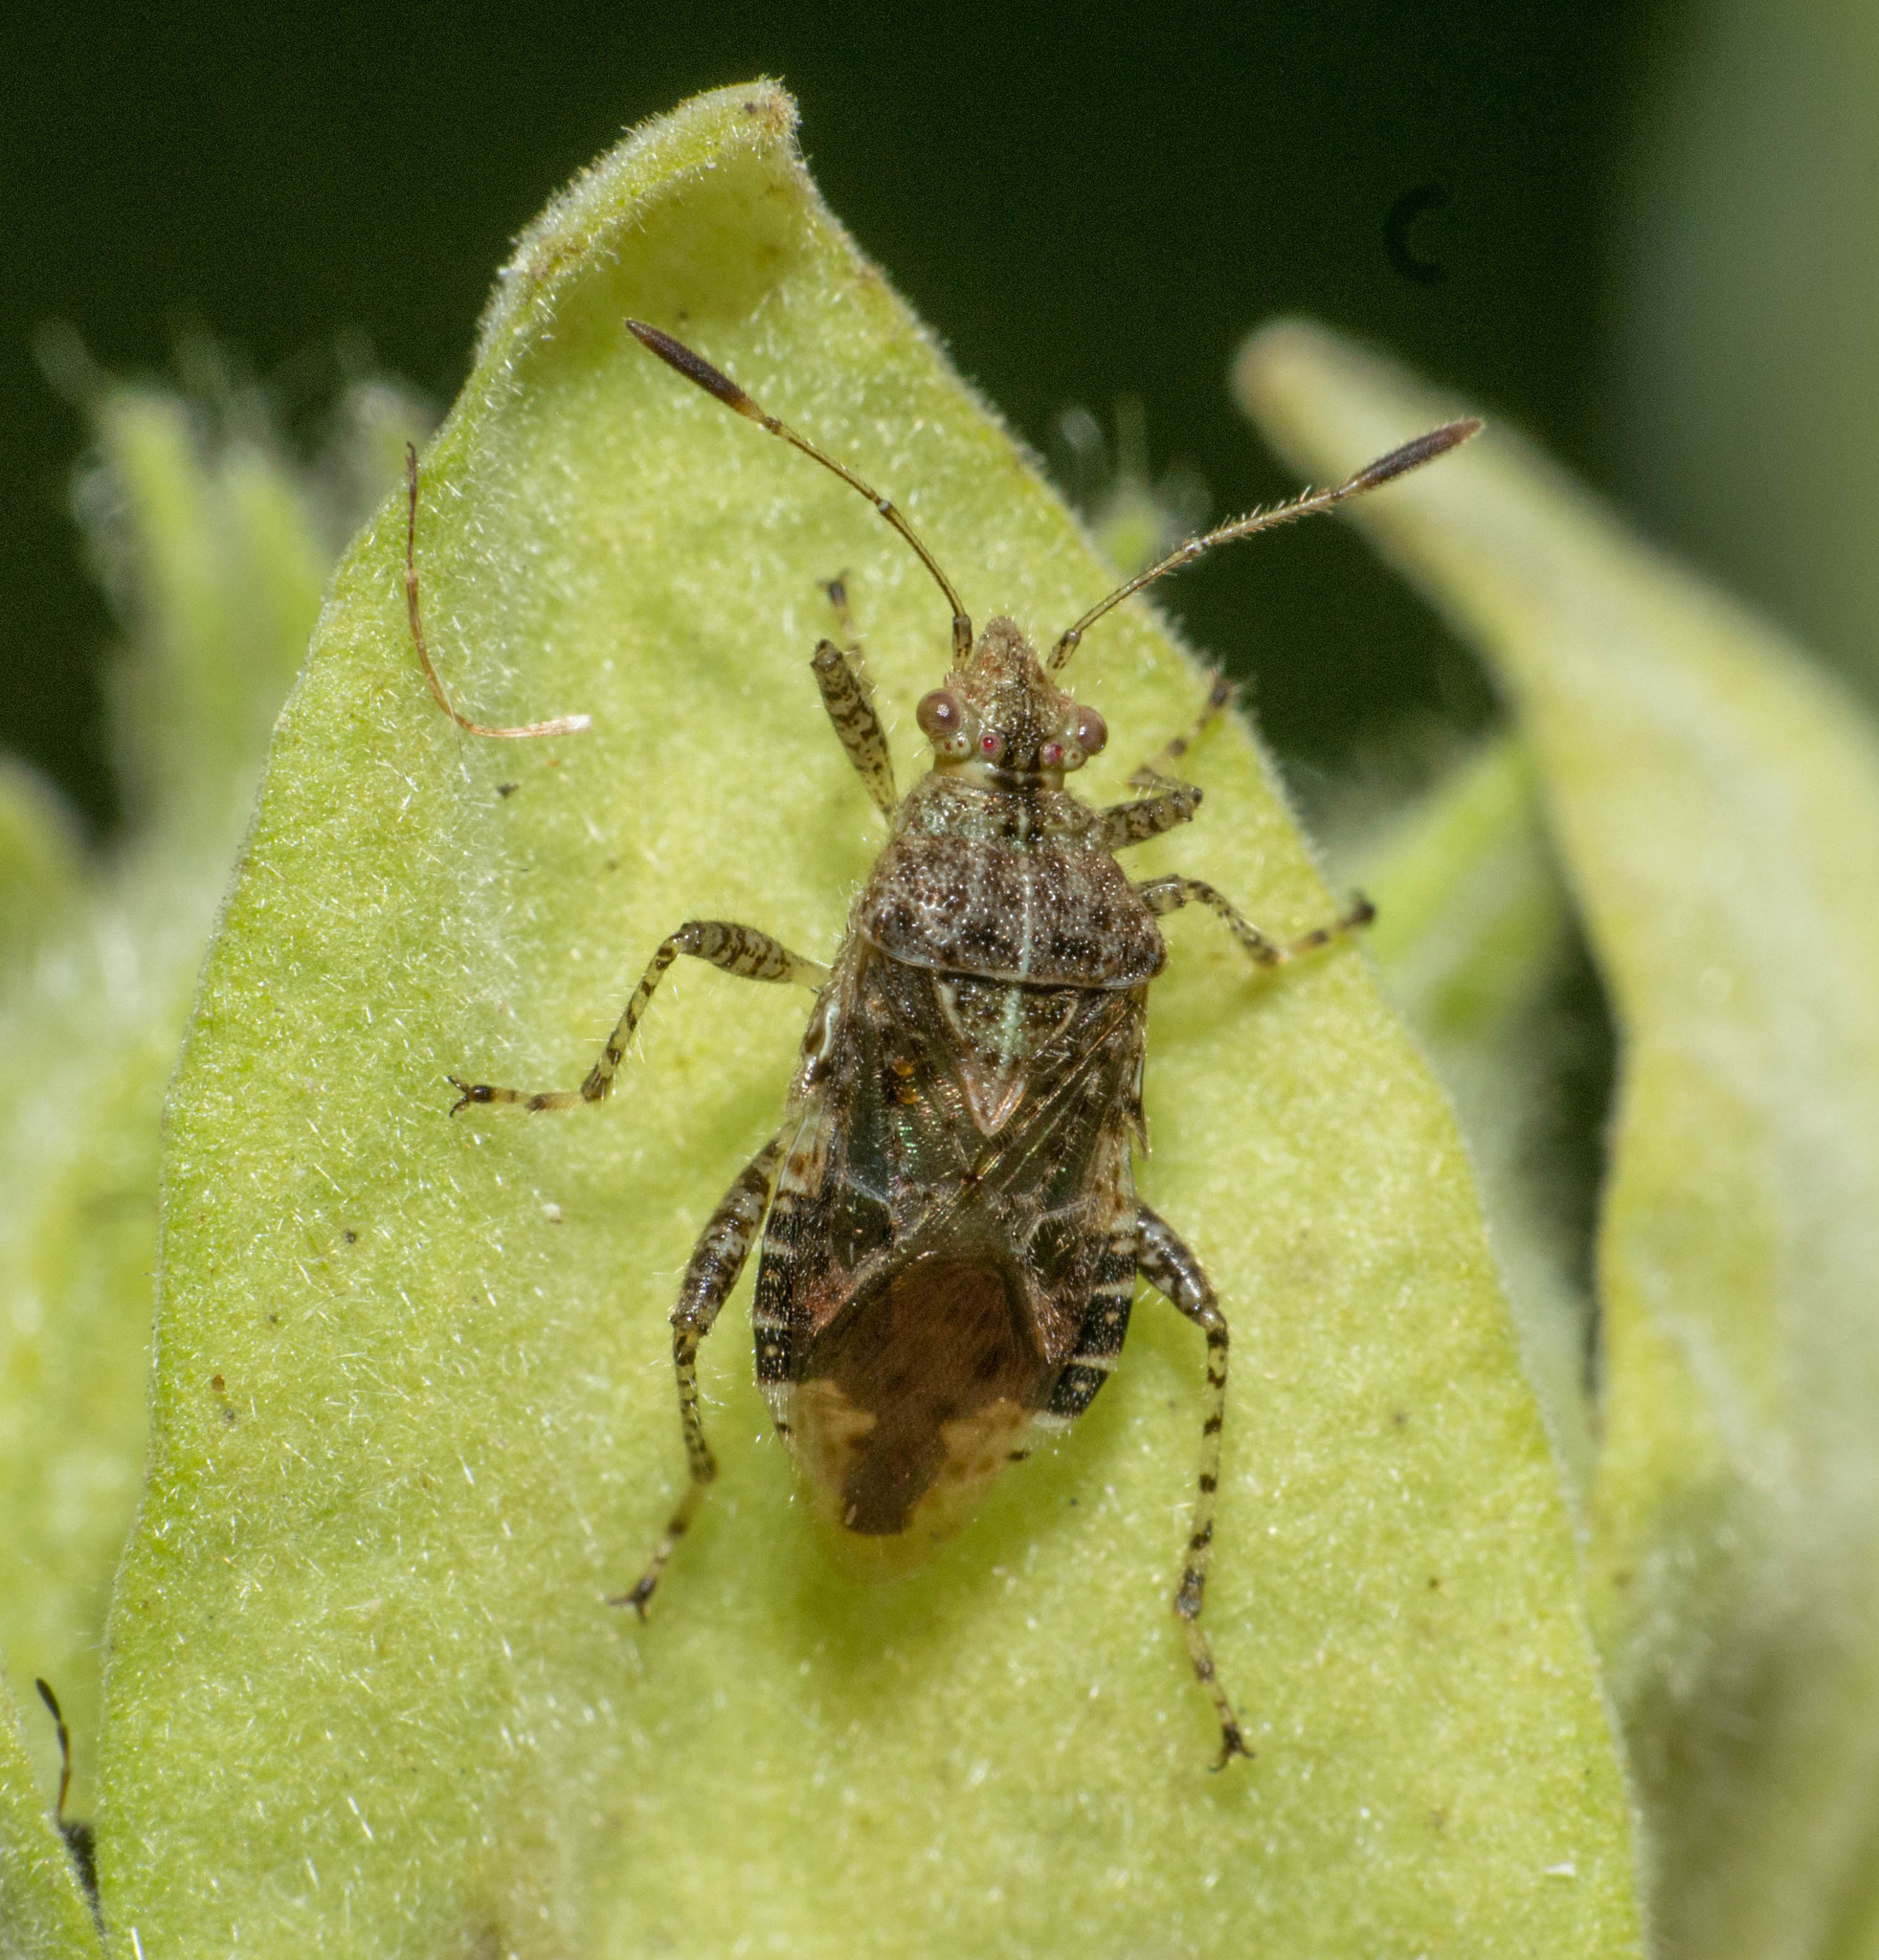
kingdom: Animalia
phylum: Arthropoda
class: Insecta
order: Hemiptera
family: Rhopalidae
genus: Niesthrea
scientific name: Niesthrea
